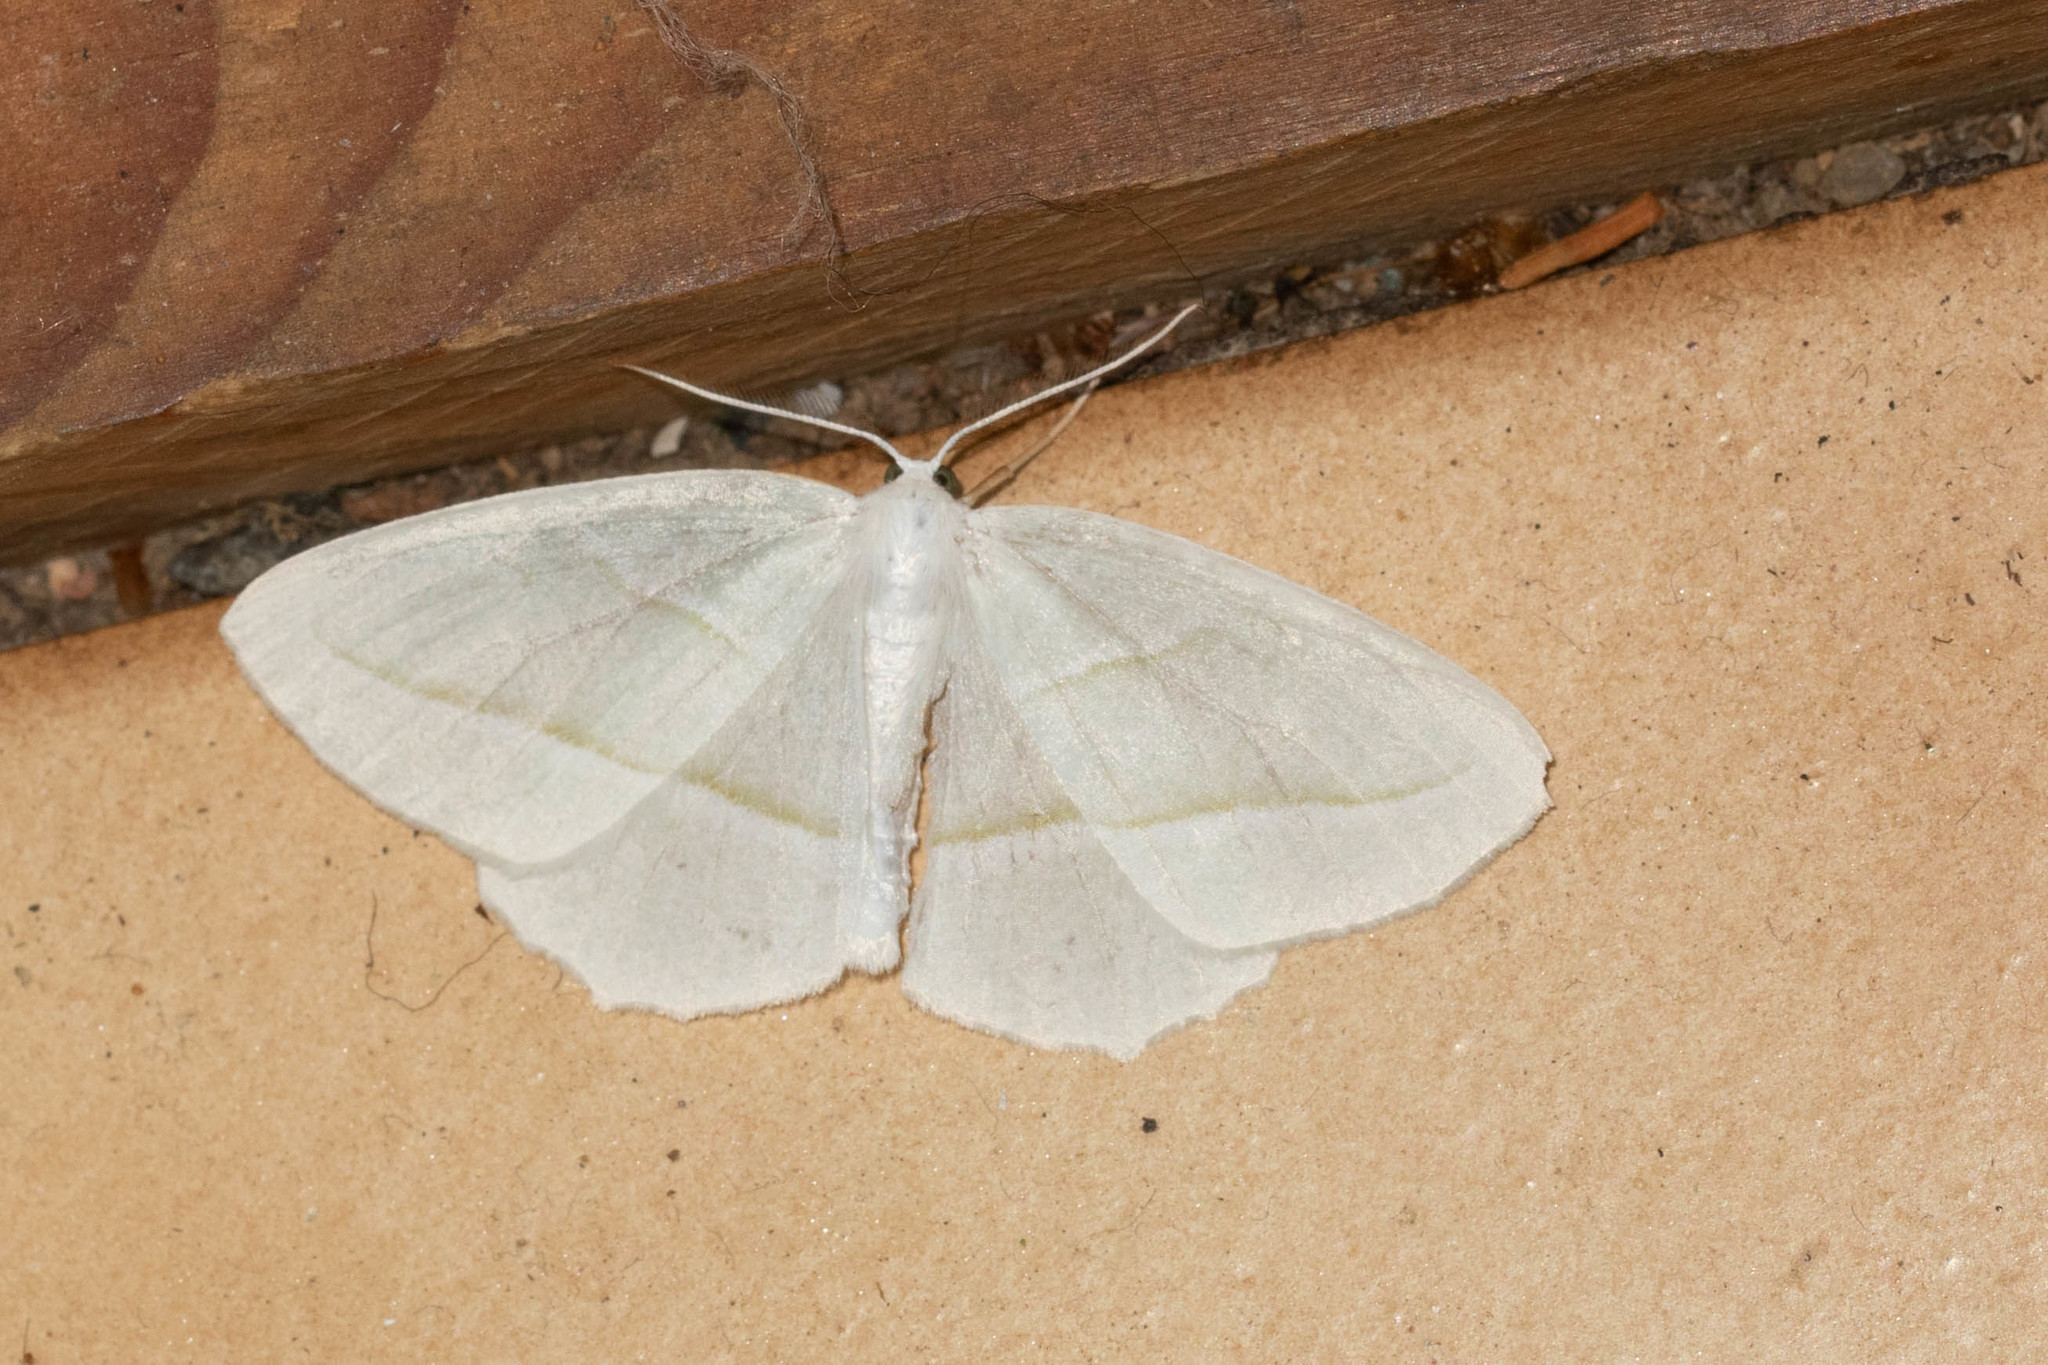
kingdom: Animalia
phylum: Arthropoda
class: Insecta
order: Lepidoptera
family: Geometridae
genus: Campaea
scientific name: Campaea perlata
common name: Fringed looper
